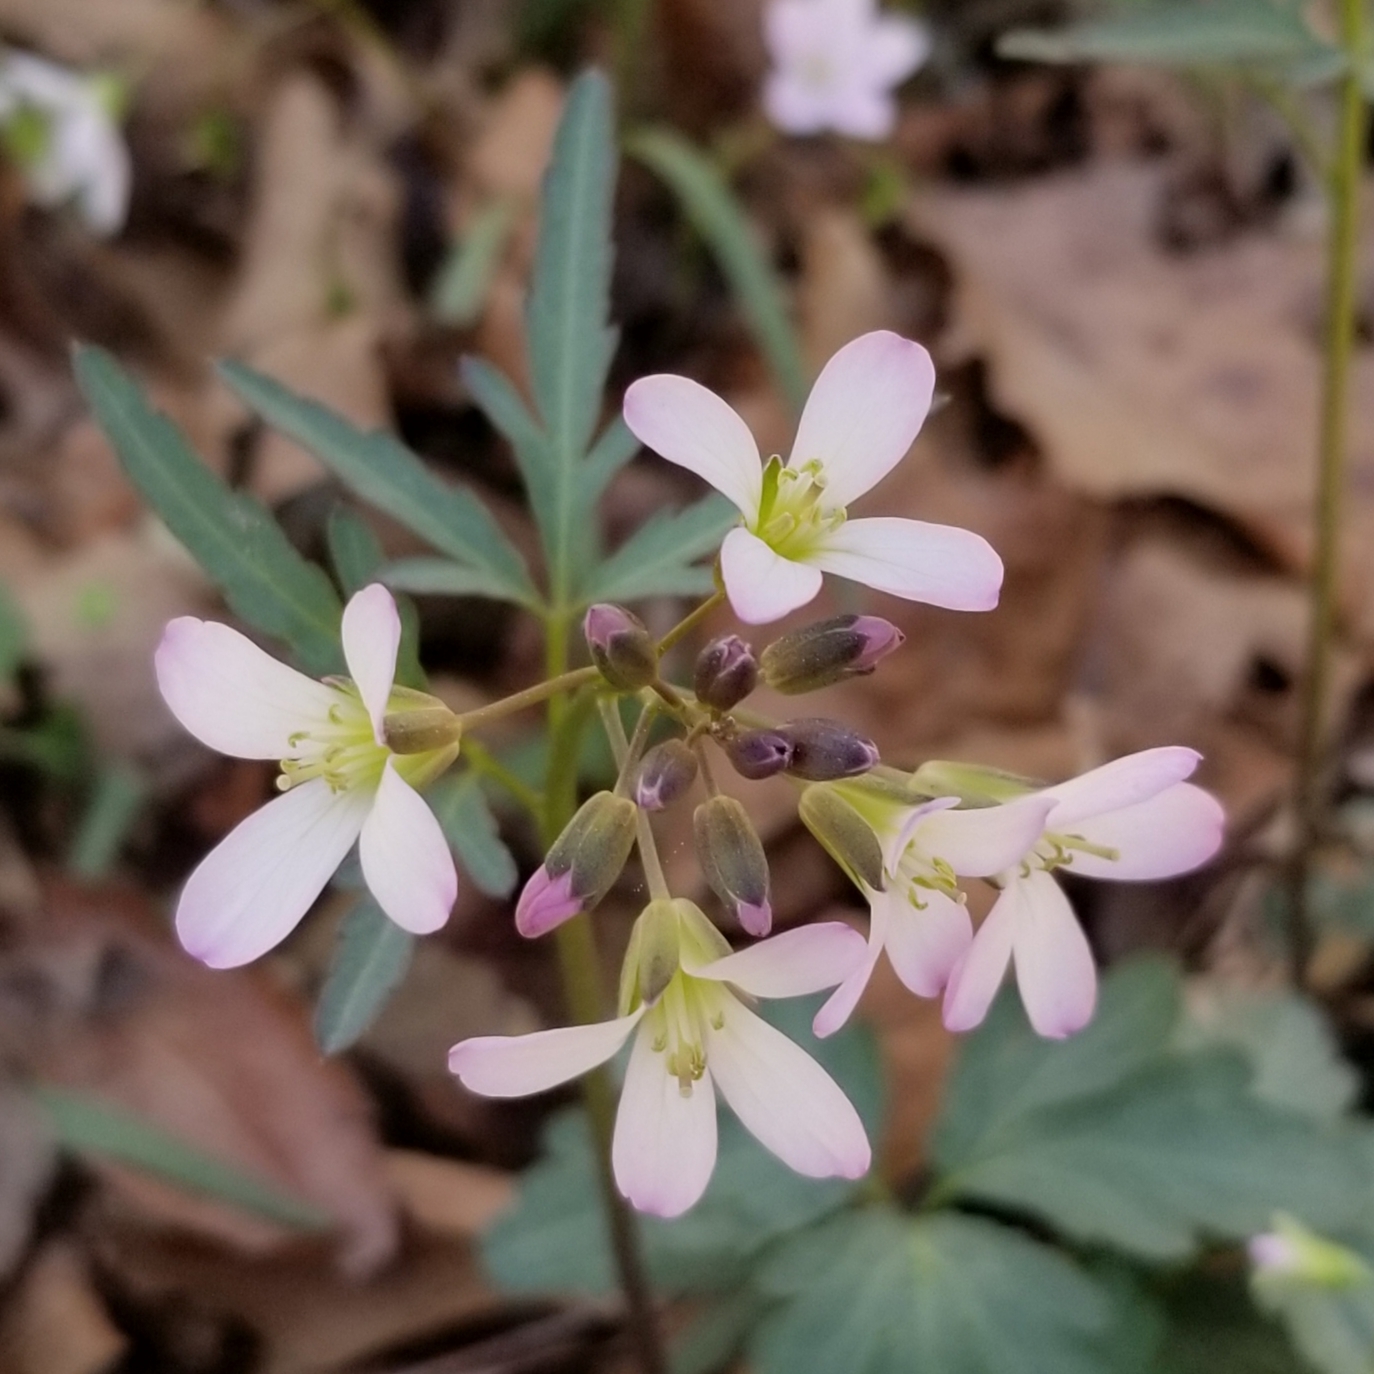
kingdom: Plantae
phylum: Tracheophyta
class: Magnoliopsida
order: Brassicales
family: Brassicaceae
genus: Cardamine
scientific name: Cardamine angustata
